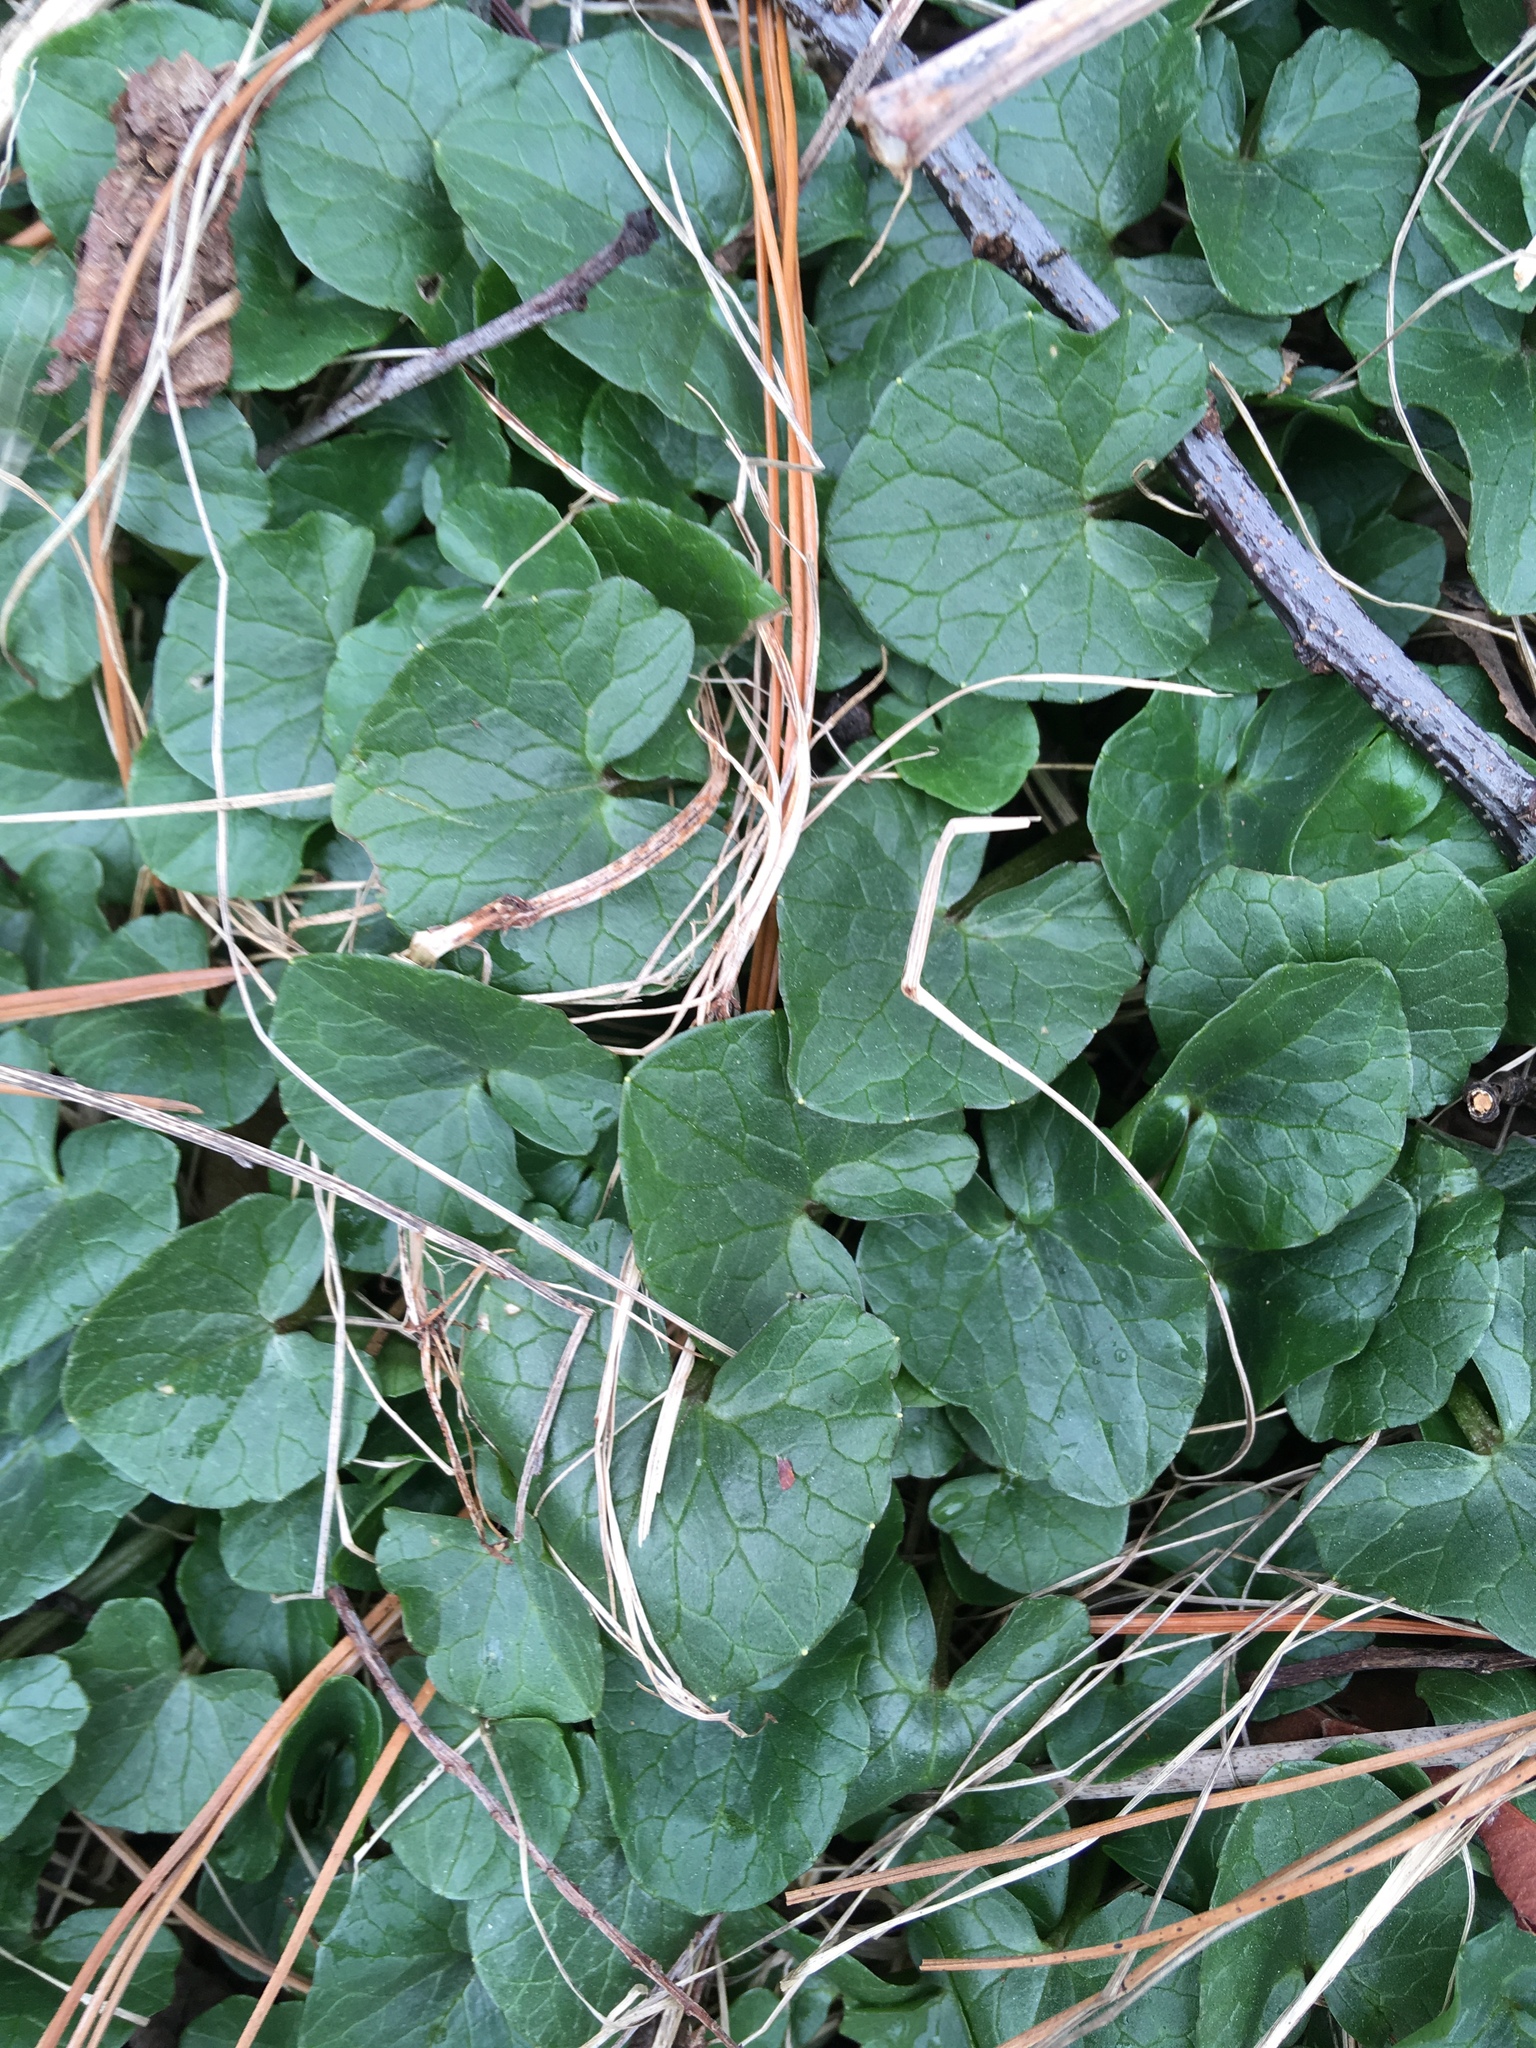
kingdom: Plantae
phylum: Tracheophyta
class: Magnoliopsida
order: Ranunculales
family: Ranunculaceae
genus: Ficaria
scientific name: Ficaria verna
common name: Lesser celandine
